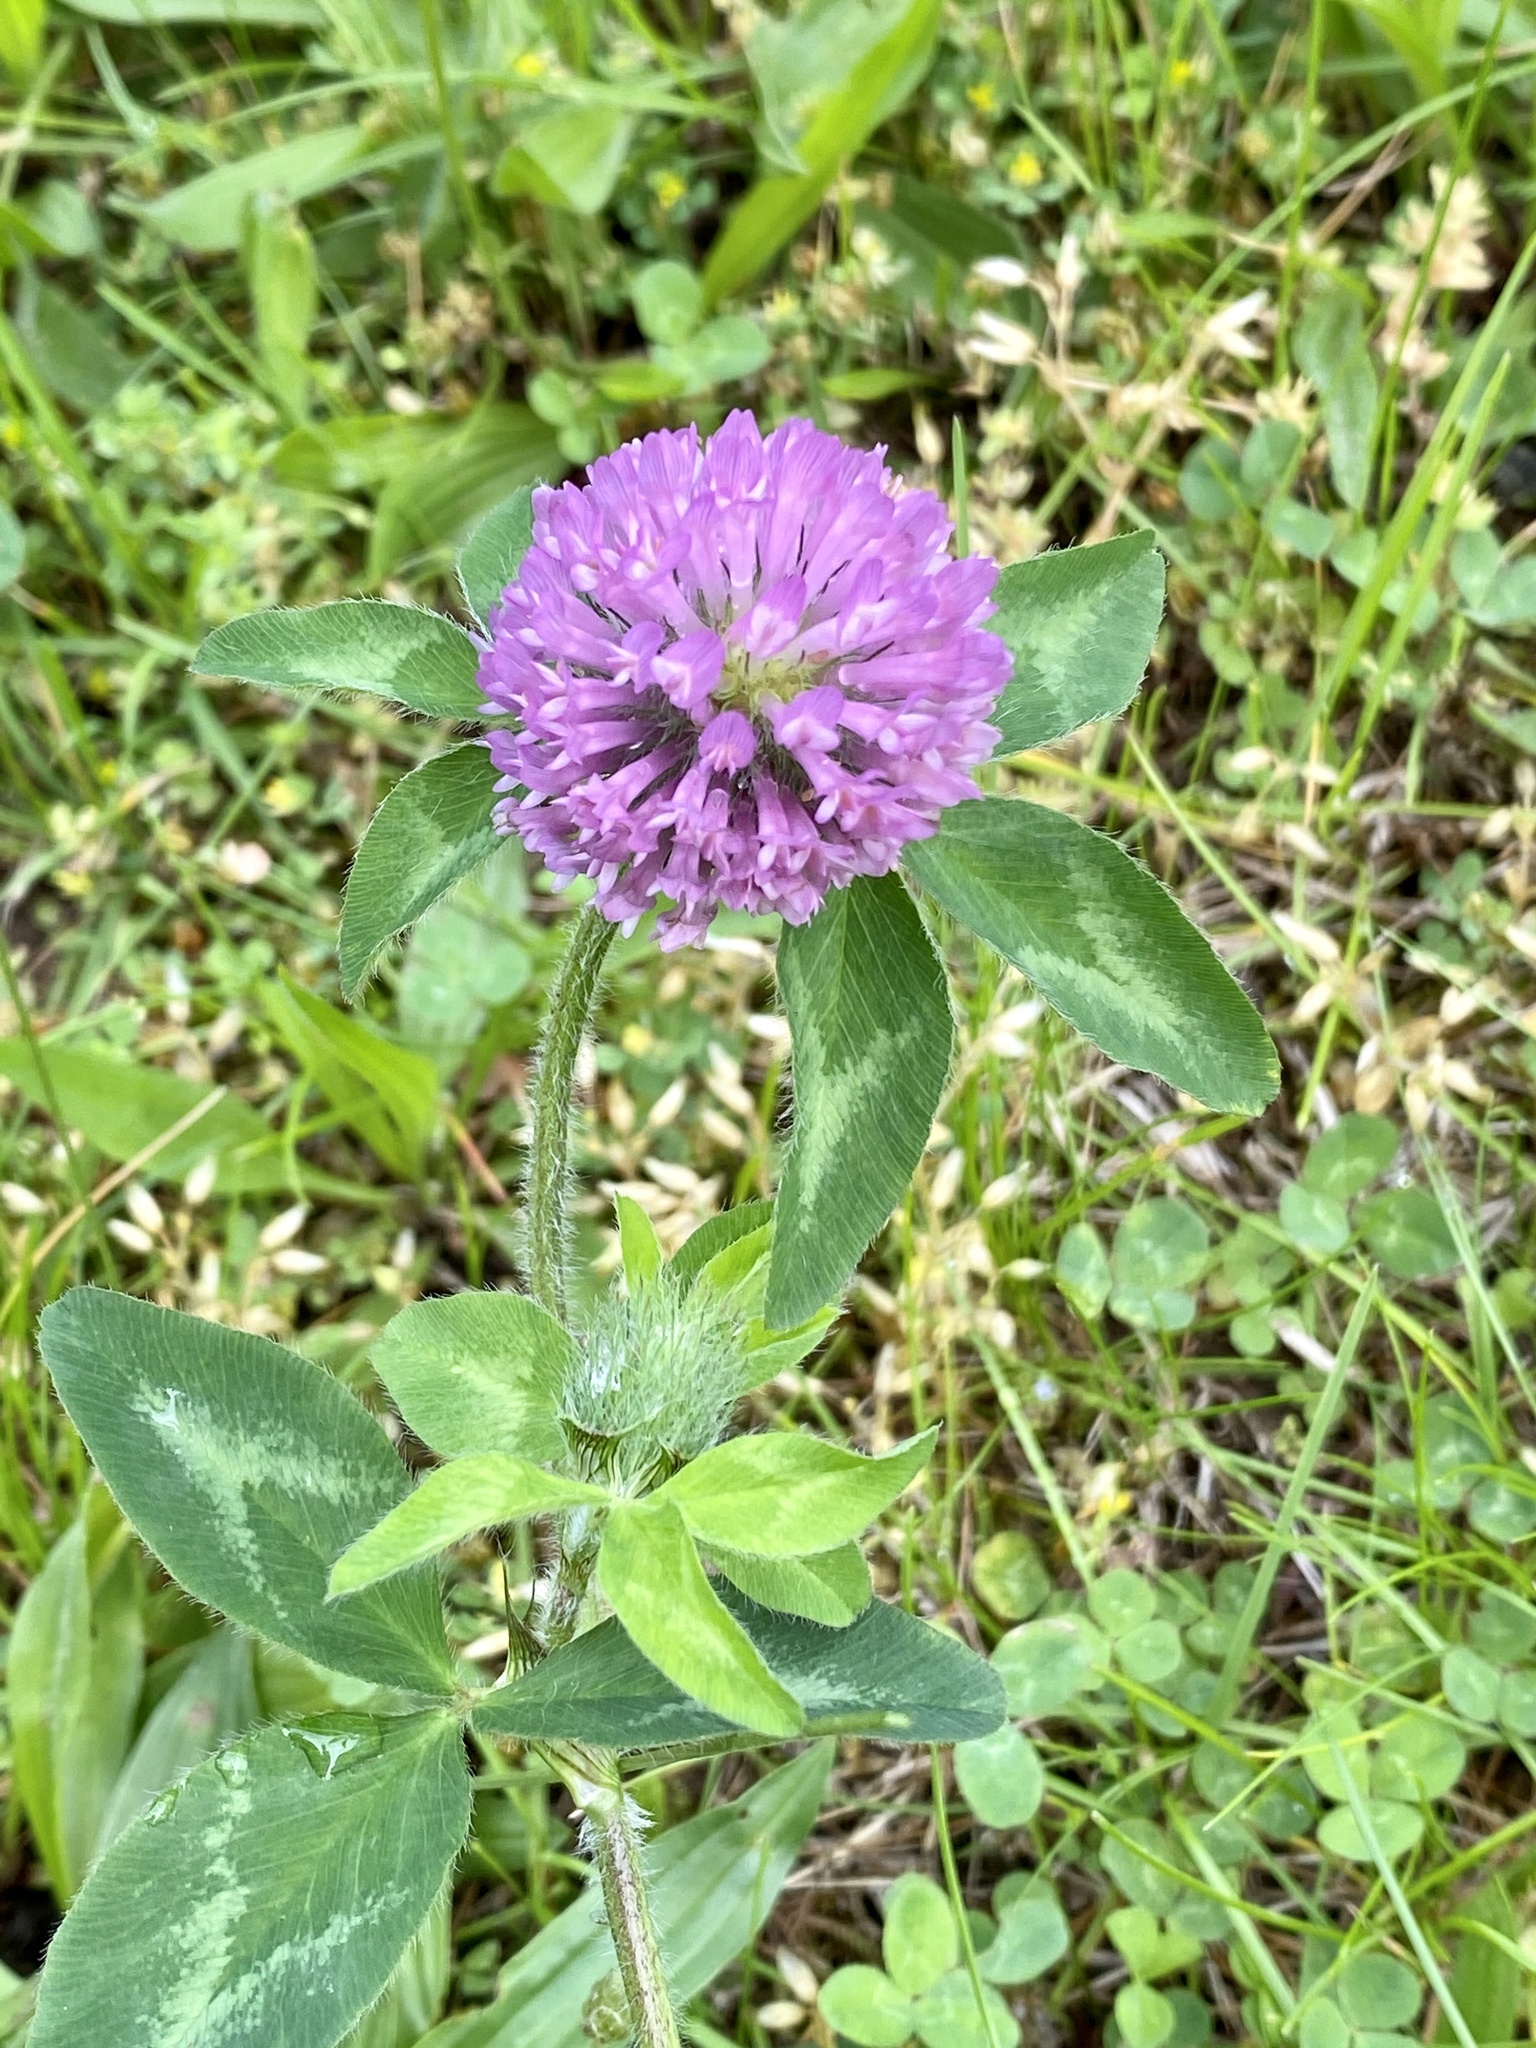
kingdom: Plantae
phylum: Tracheophyta
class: Magnoliopsida
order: Fabales
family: Fabaceae
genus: Trifolium
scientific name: Trifolium pratense
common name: Red clover
